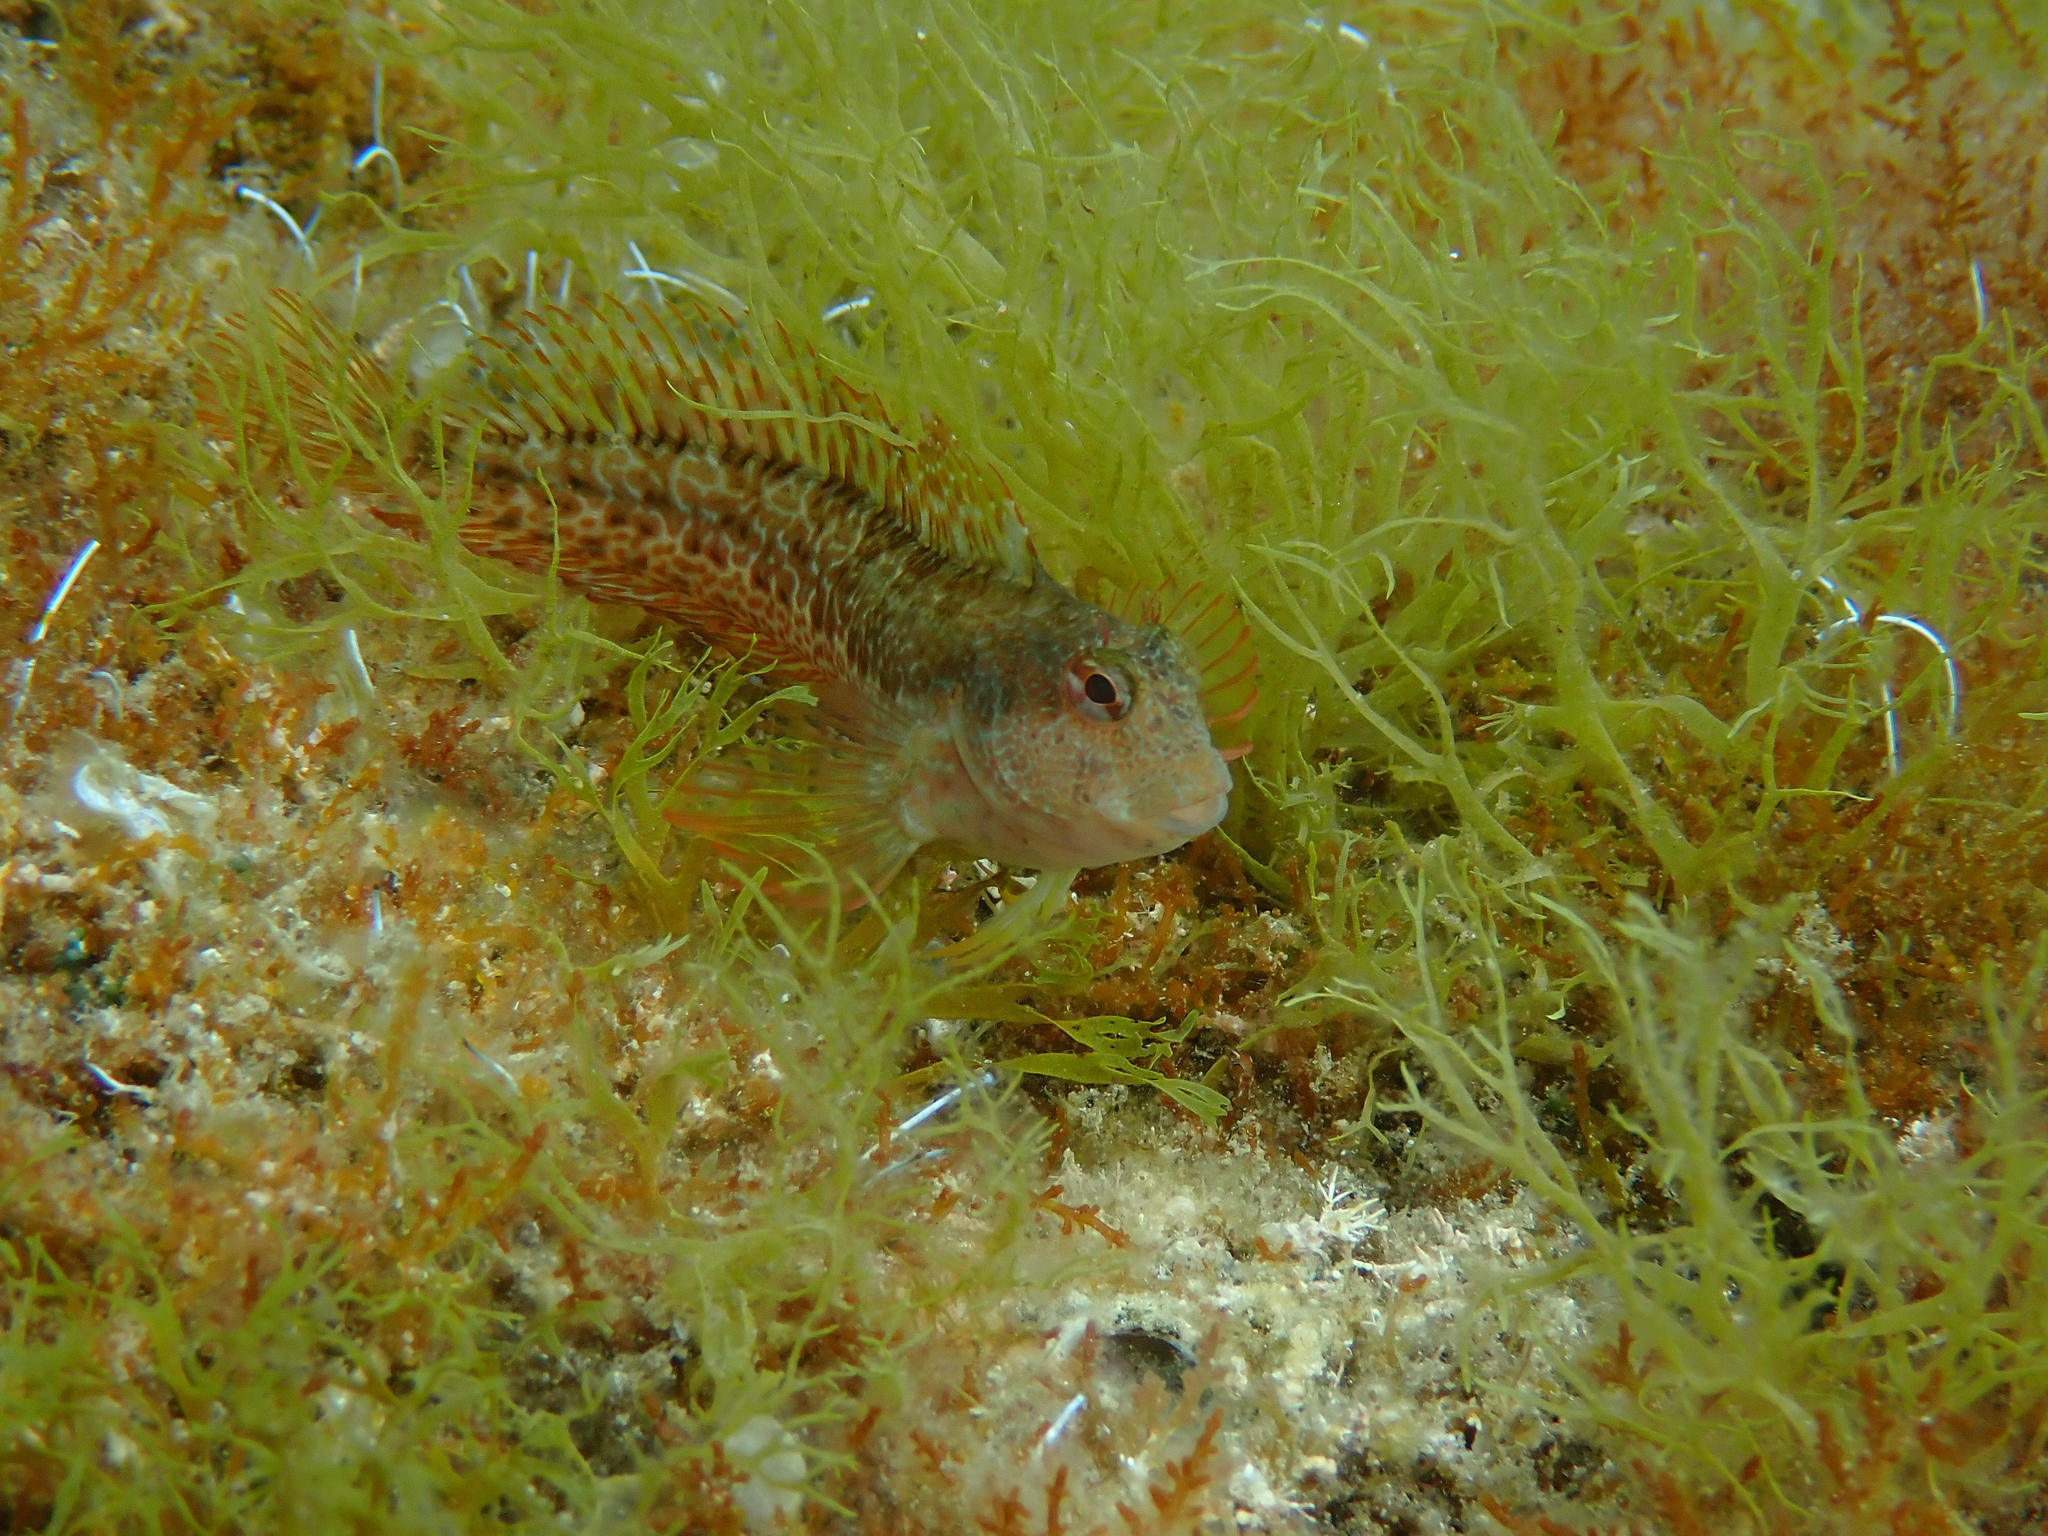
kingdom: Animalia
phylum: Chordata
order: Perciformes
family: Blenniidae
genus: Parablennius
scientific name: Parablennius pilicornis
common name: Ringneck blenny
